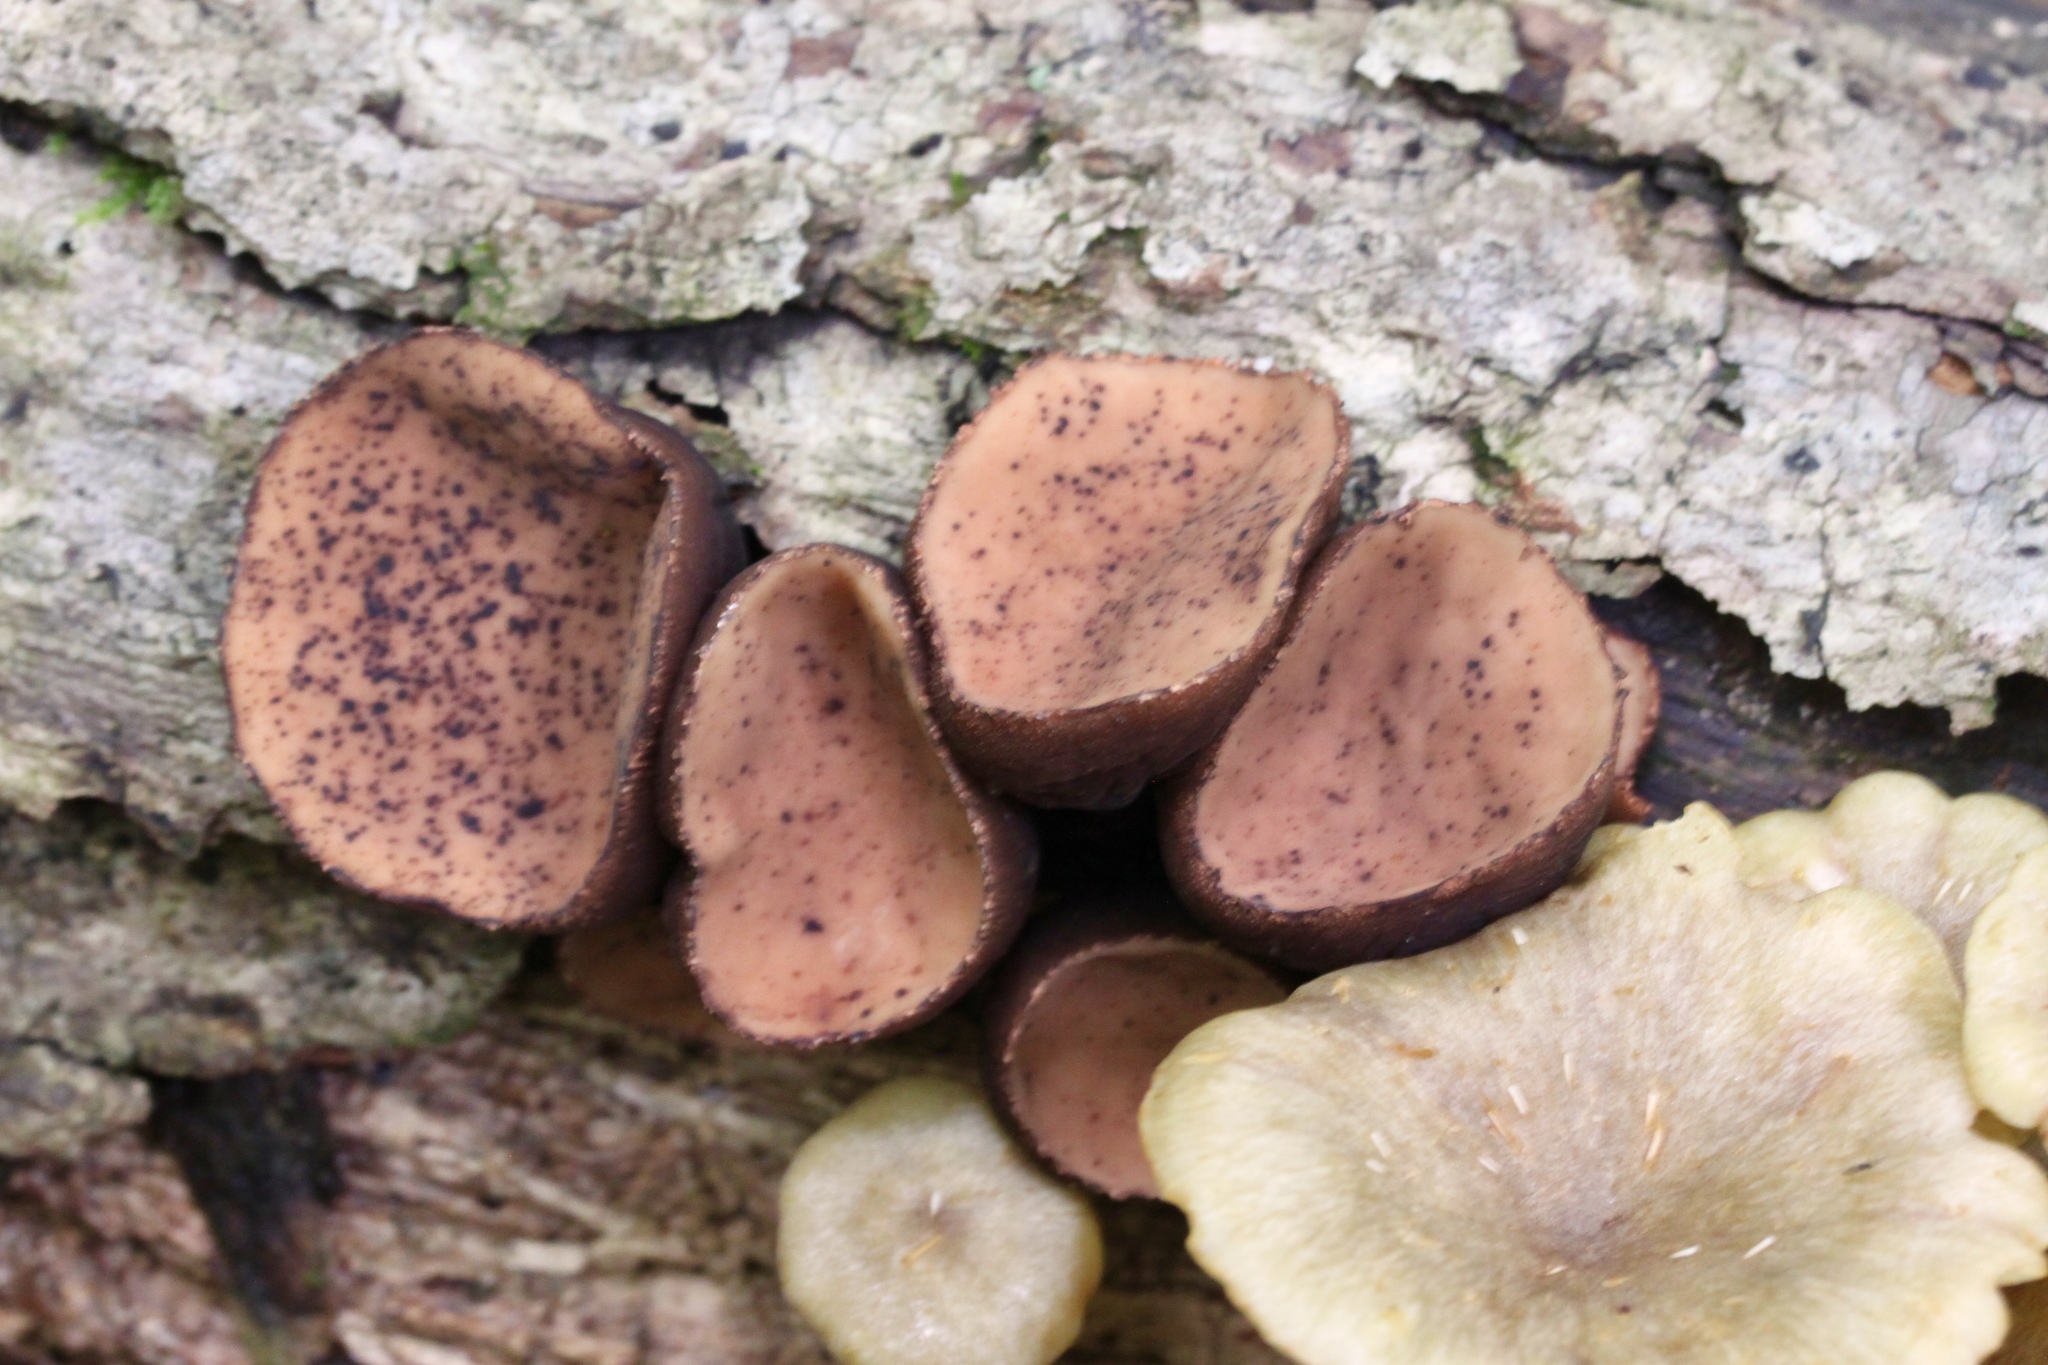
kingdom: Fungi
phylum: Ascomycota
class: Pezizomycetes
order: Pezizales
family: Sarcosomataceae
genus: Galiella
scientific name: Galiella rufa
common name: Hairy rubber cup
